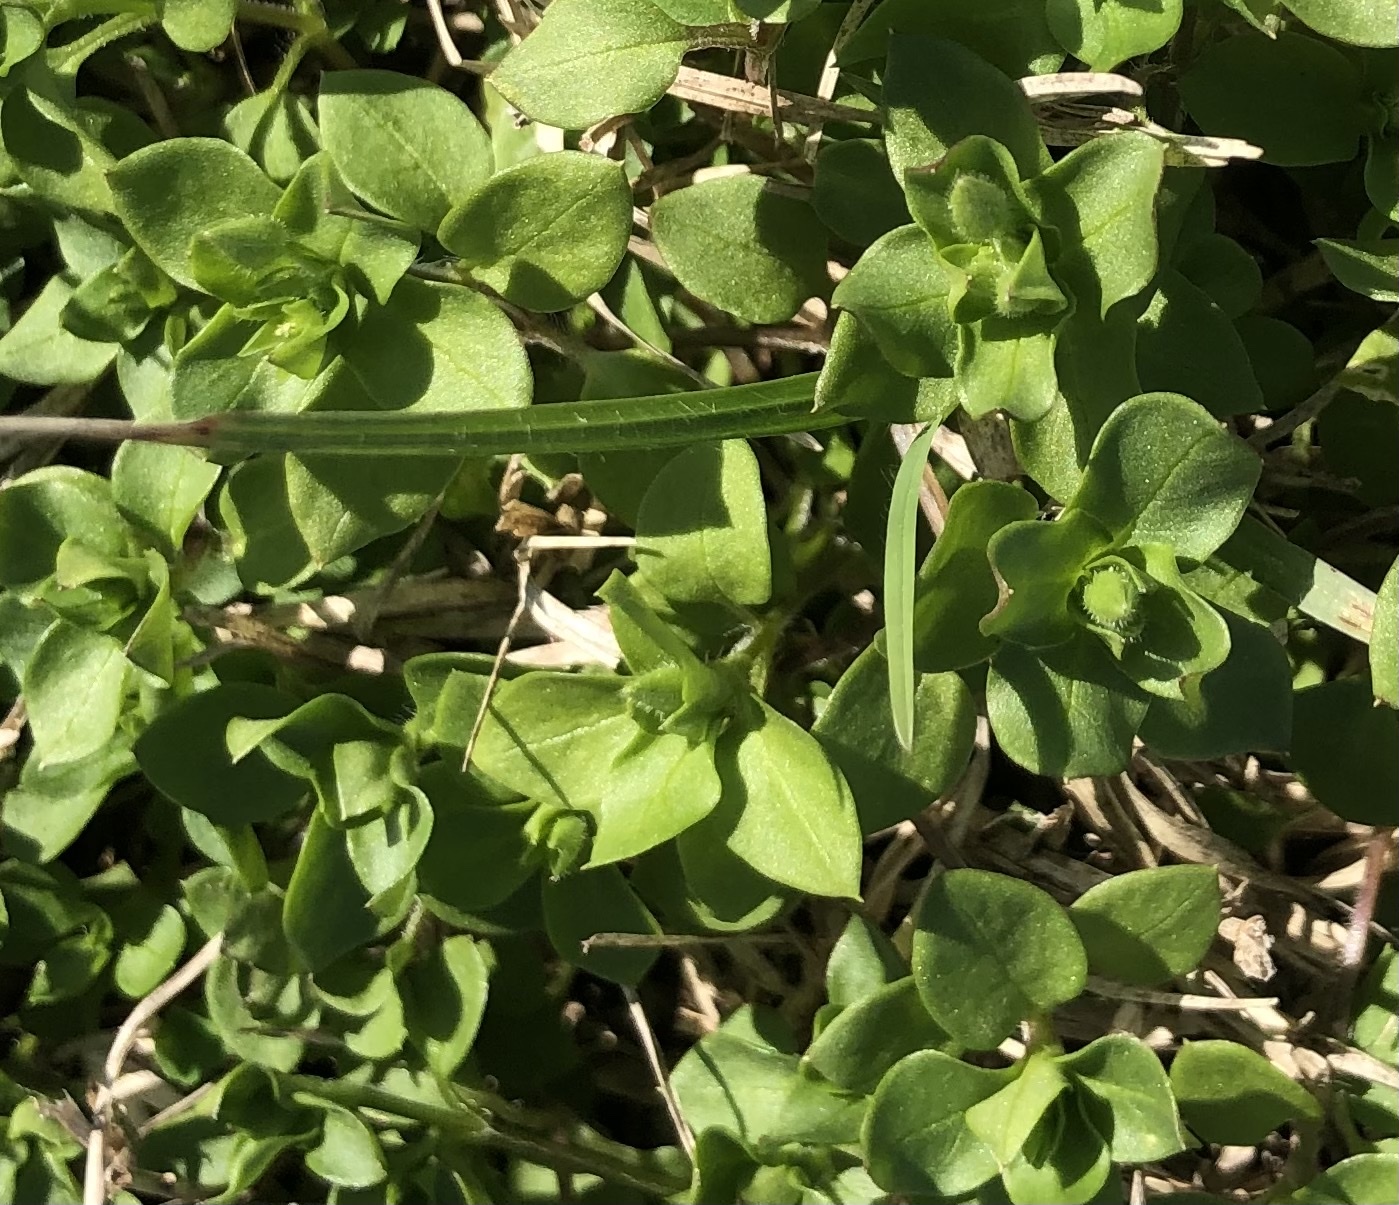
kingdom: Plantae
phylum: Tracheophyta
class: Magnoliopsida
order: Caryophyllales
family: Caryophyllaceae
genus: Stellaria
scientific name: Stellaria media
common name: Common chickweed
